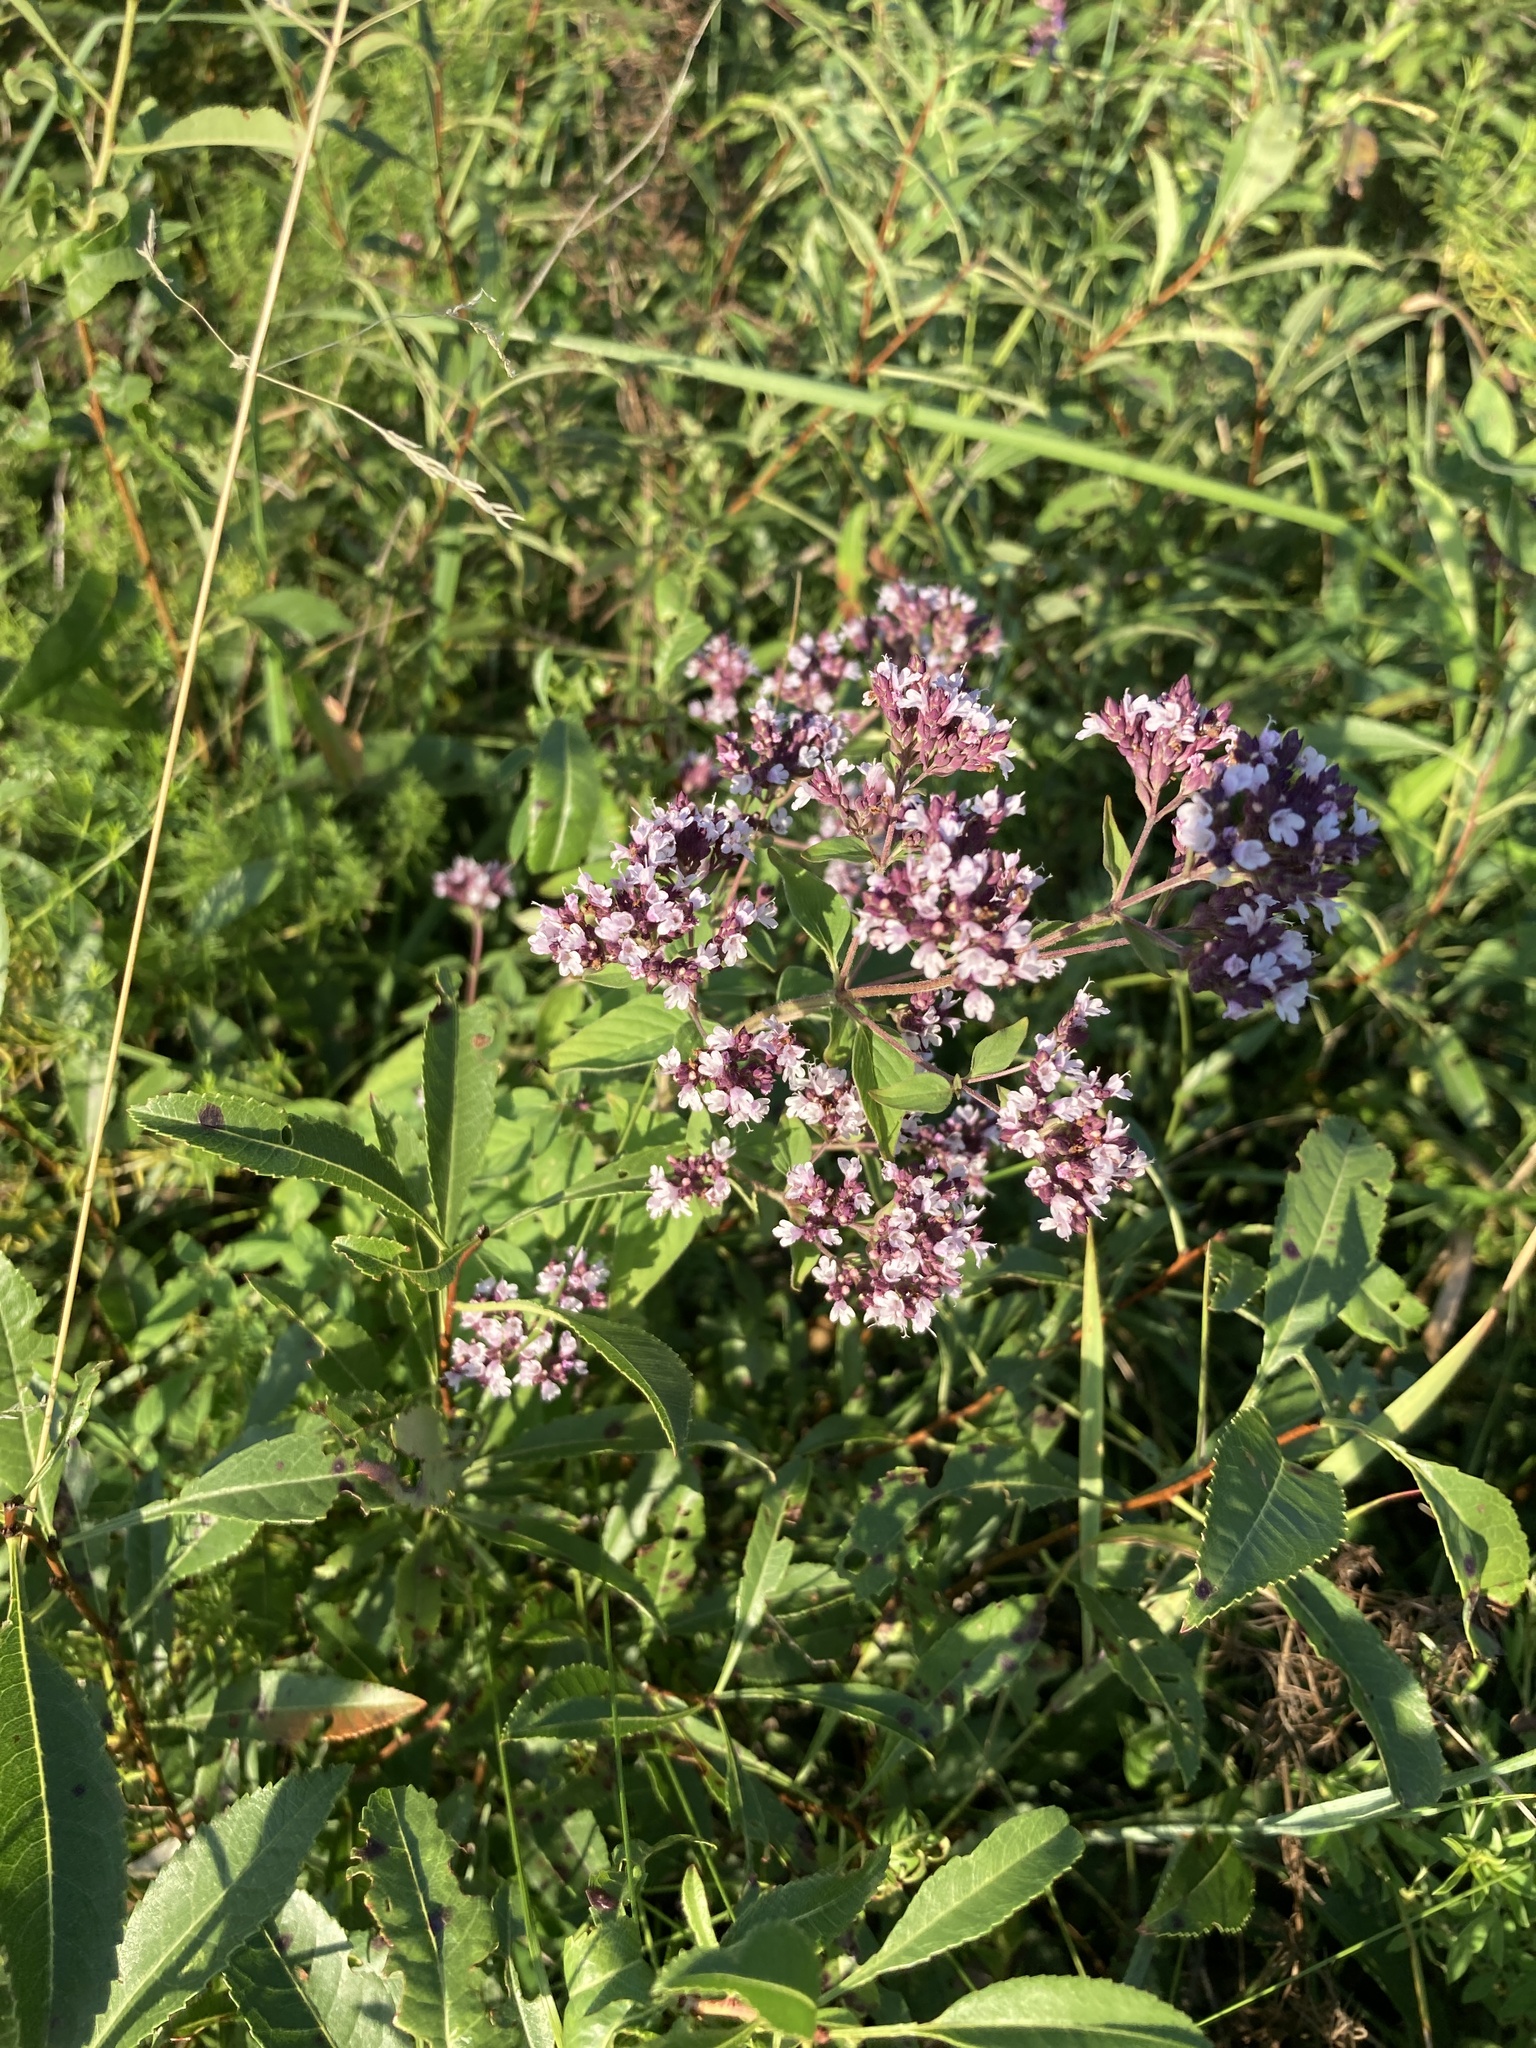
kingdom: Plantae
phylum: Tracheophyta
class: Magnoliopsida
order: Lamiales
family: Lamiaceae
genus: Origanum
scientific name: Origanum vulgare
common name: Wild marjoram
